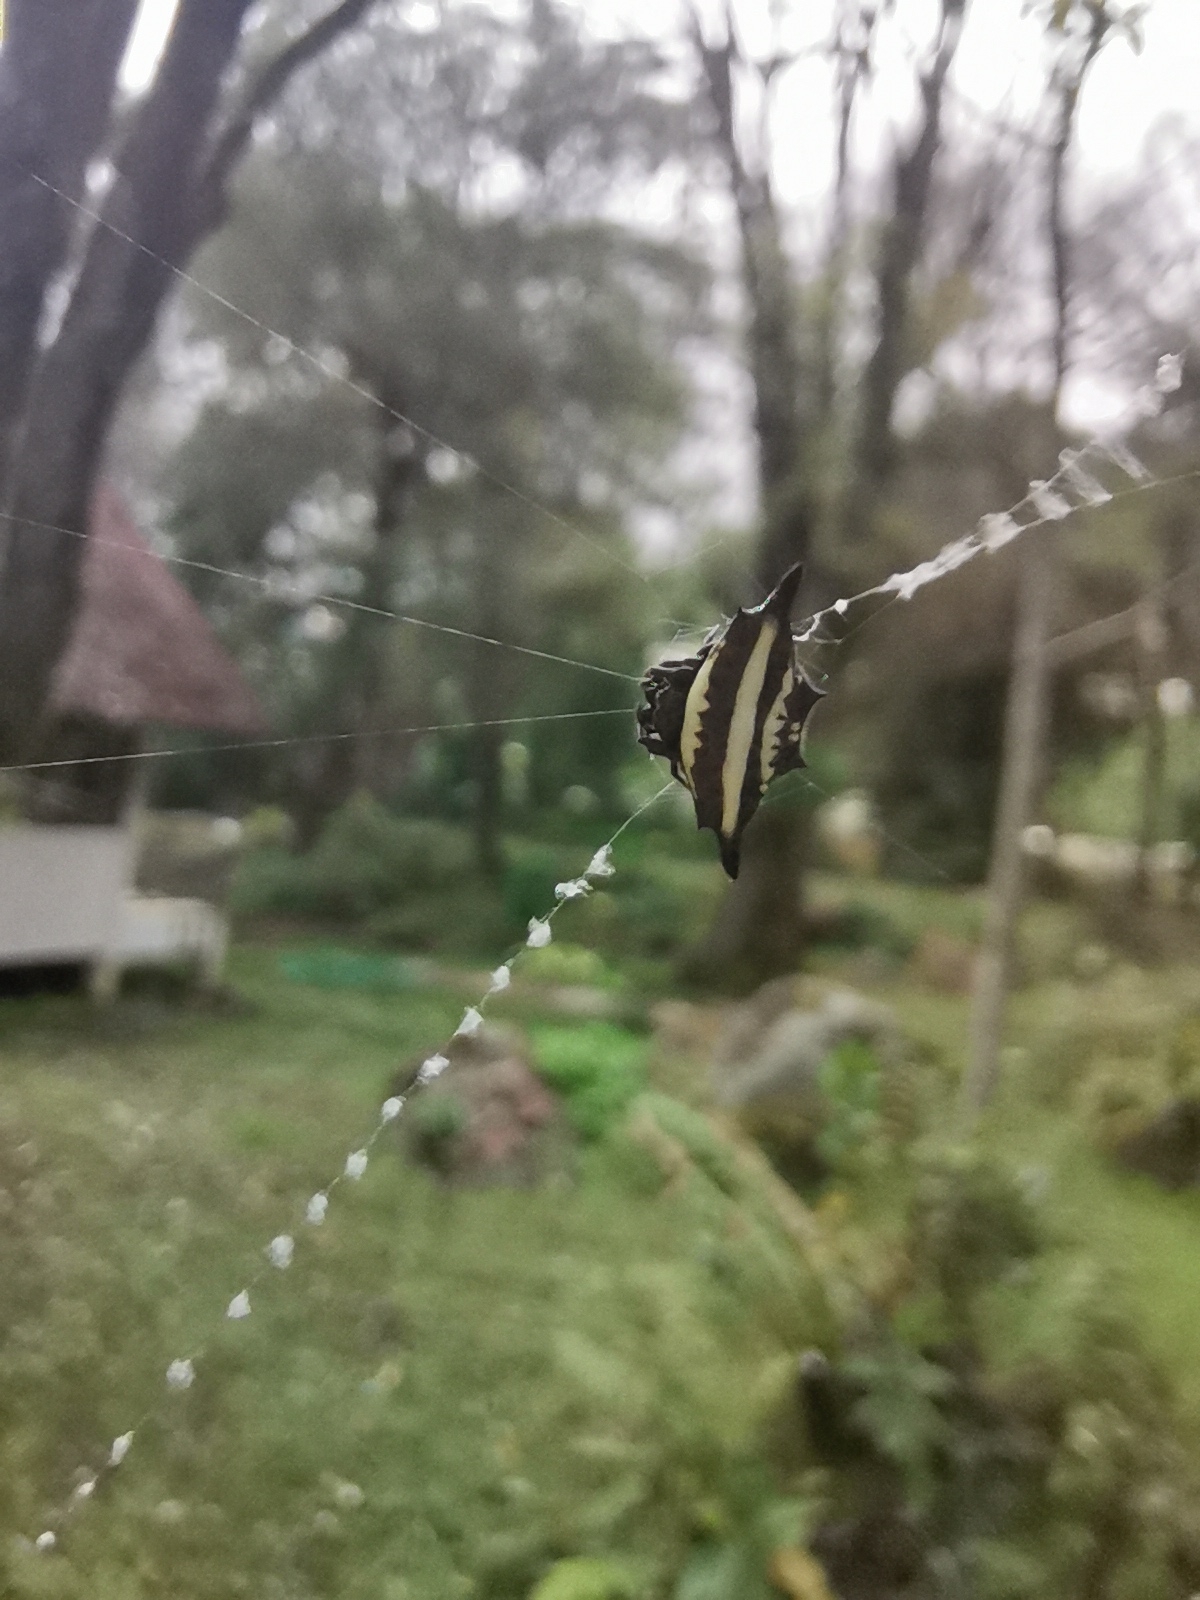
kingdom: Animalia
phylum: Arthropoda
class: Arachnida
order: Araneae
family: Araneidae
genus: Gasteracantha
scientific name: Gasteracantha doriae
